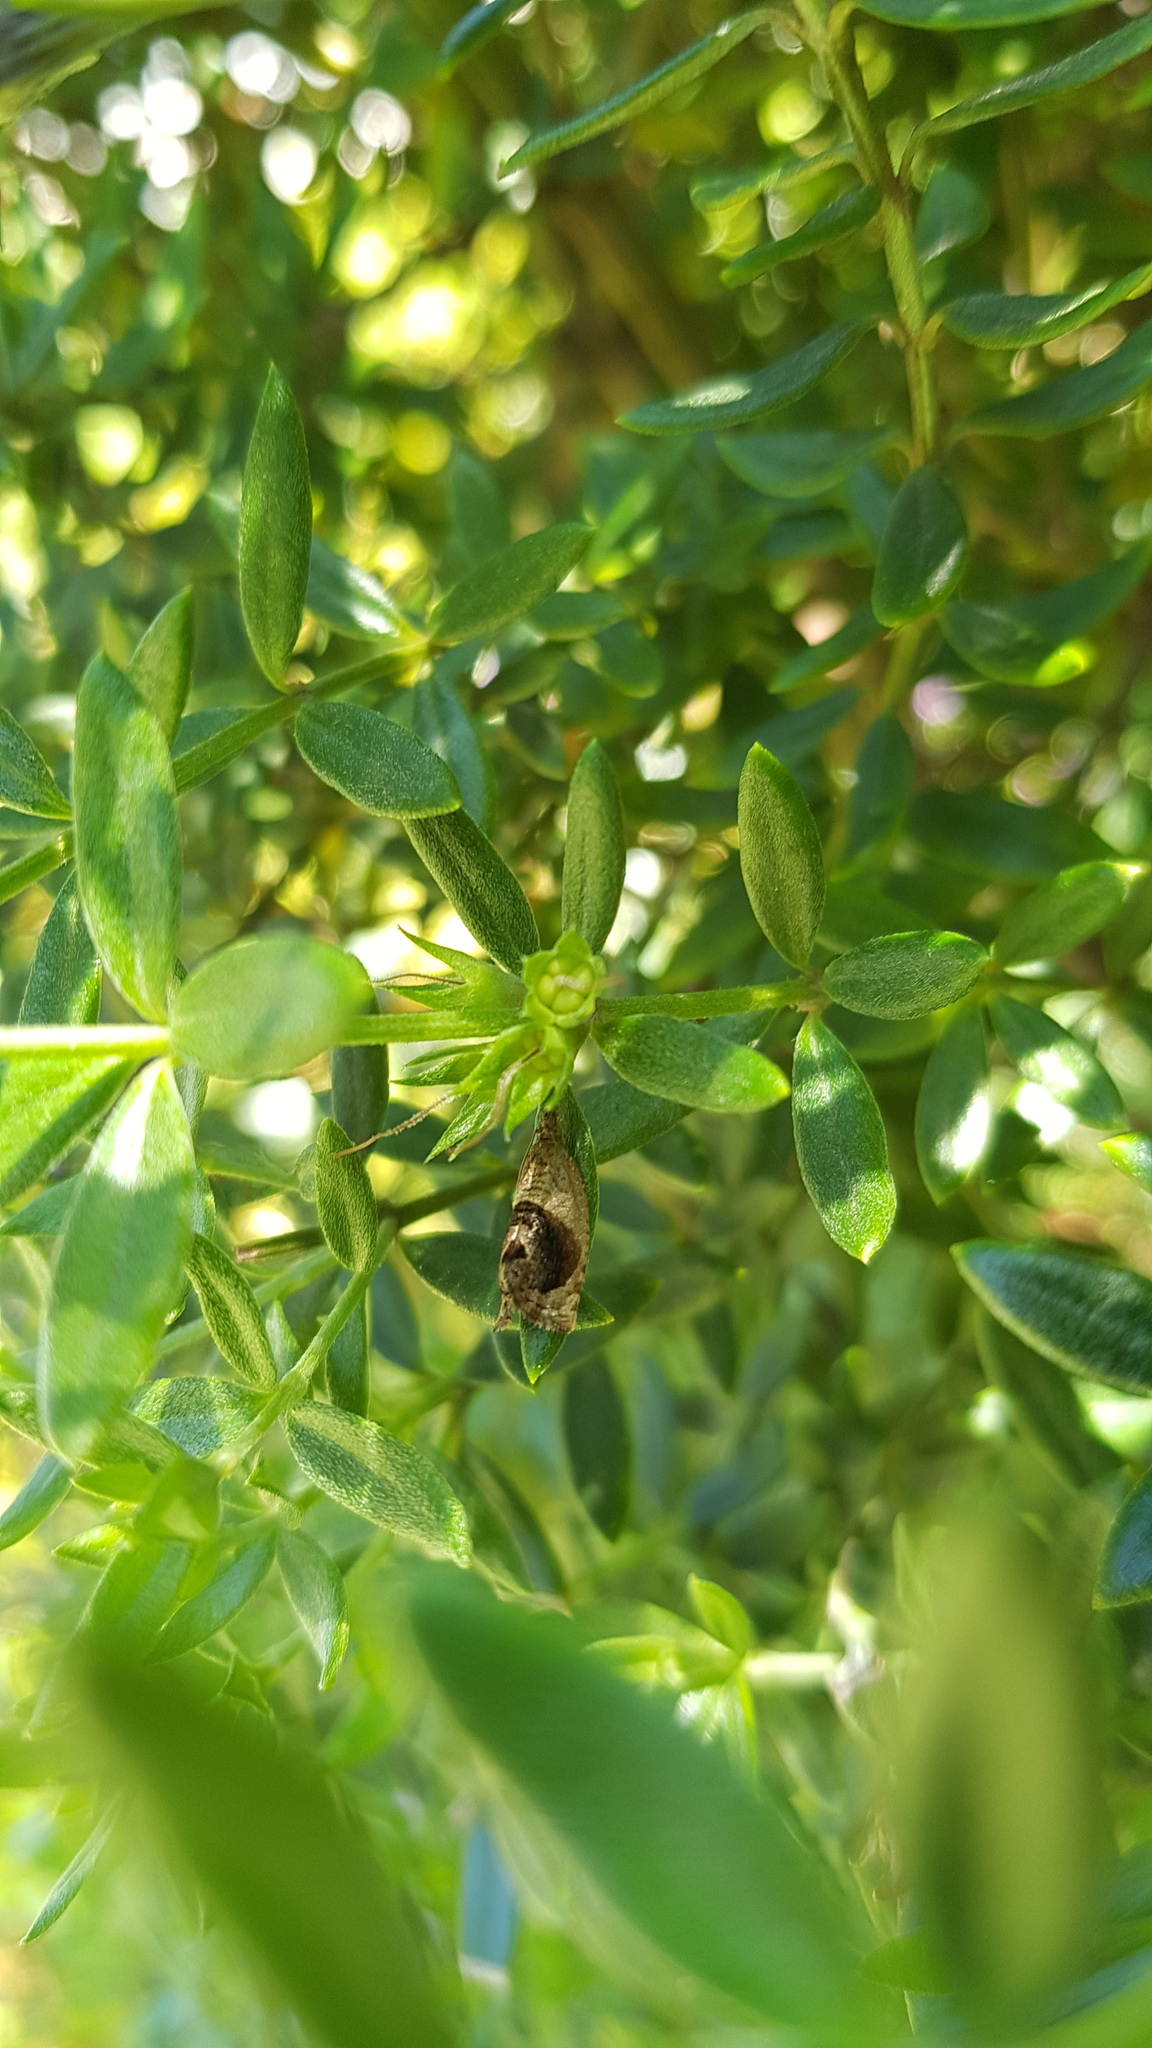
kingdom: Animalia
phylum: Arthropoda
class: Insecta
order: Lepidoptera
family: Tortricidae
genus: Acroceuthes
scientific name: Acroceuthes metaxanthana
